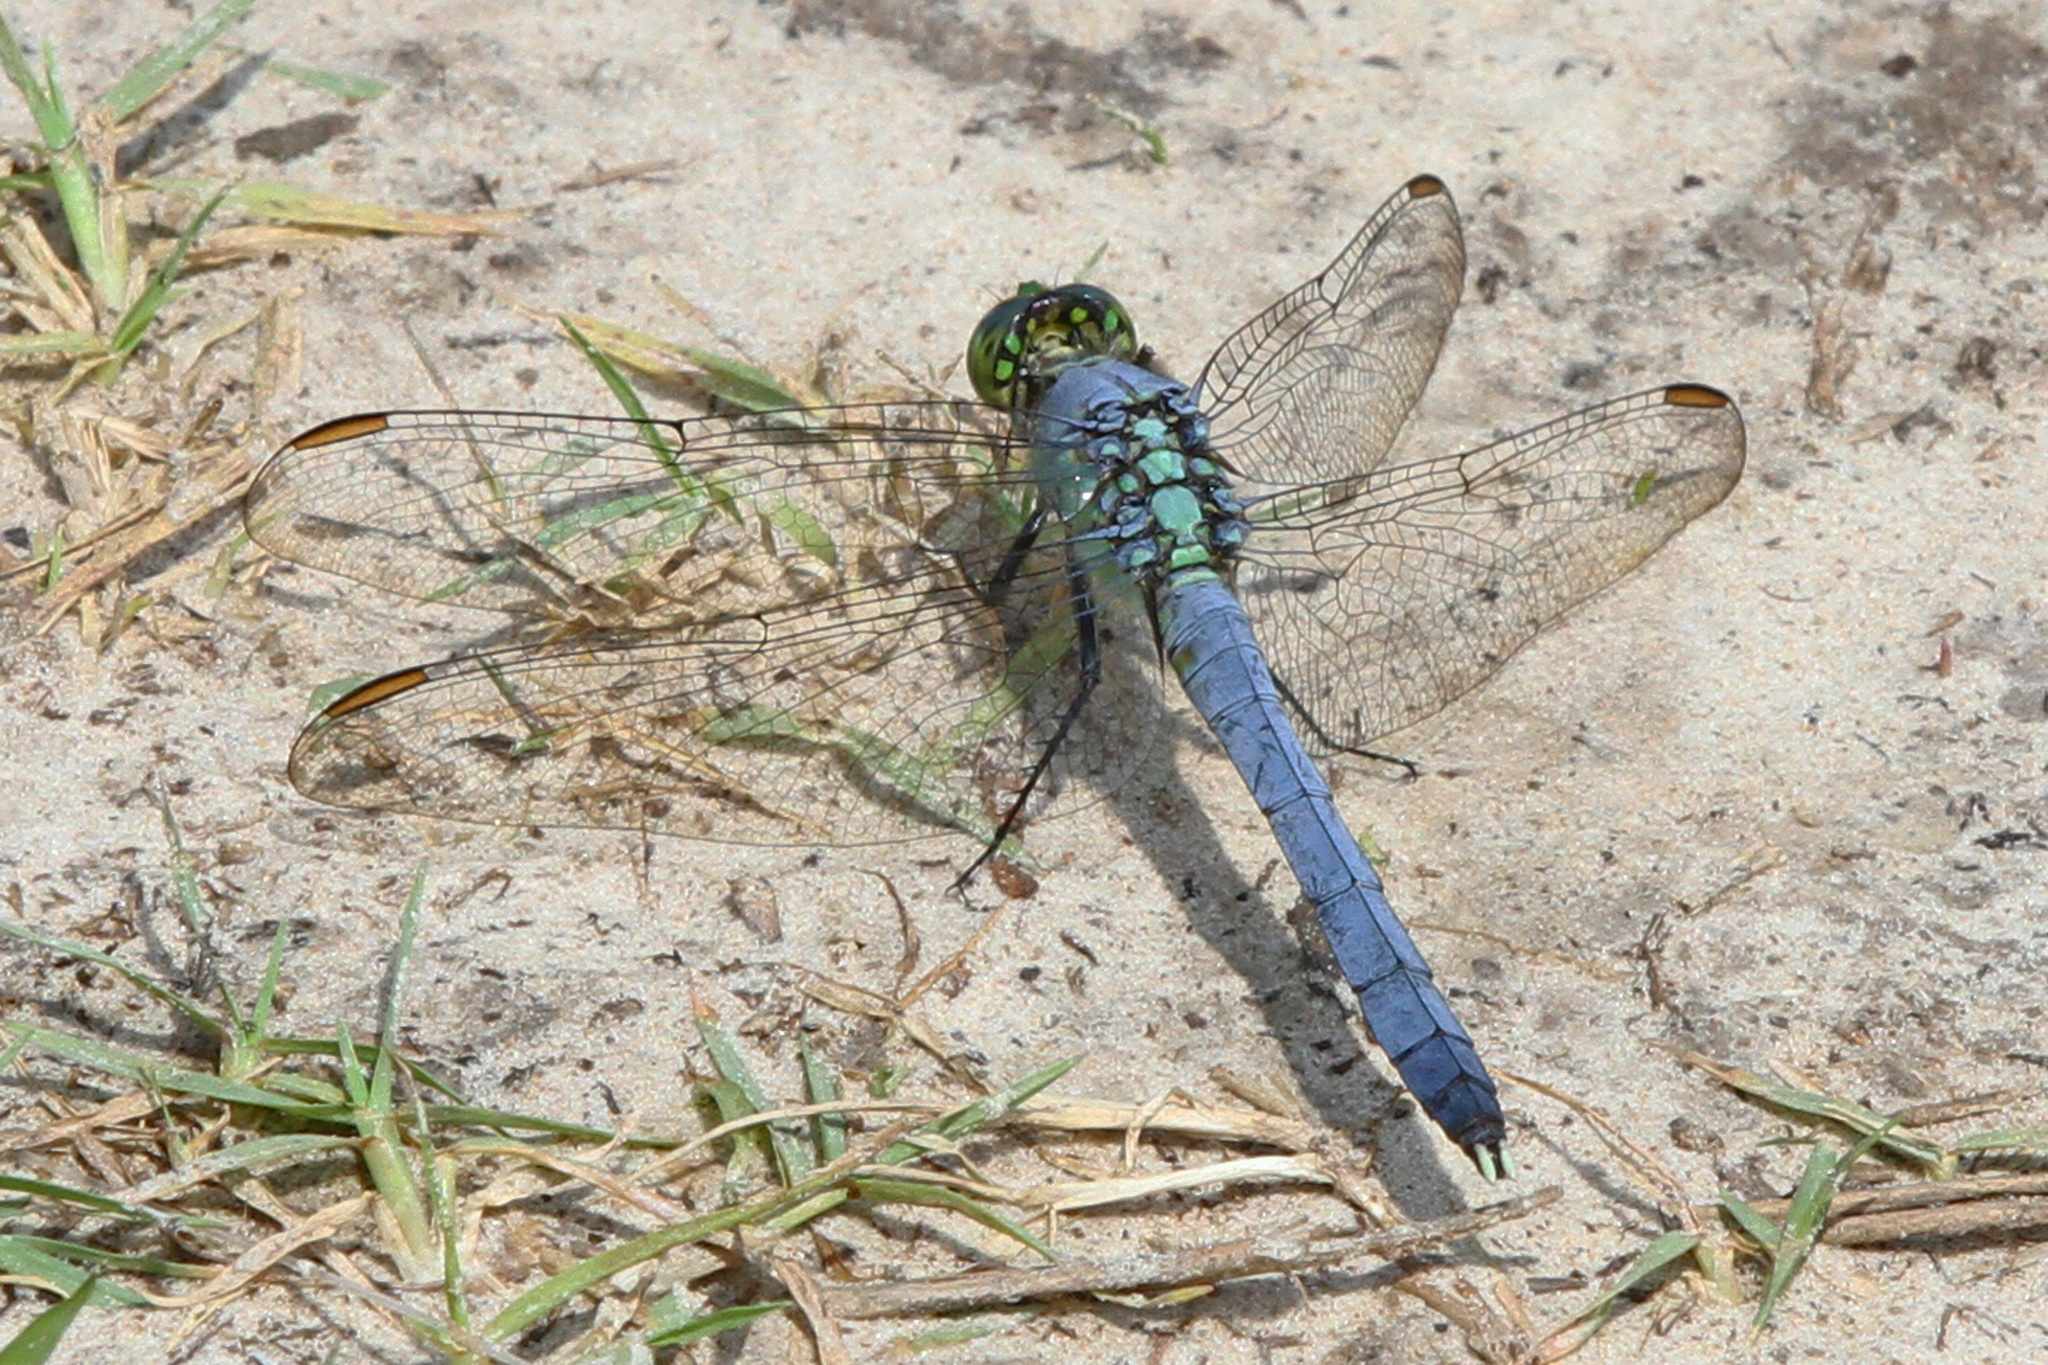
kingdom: Animalia
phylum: Arthropoda
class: Insecta
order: Odonata
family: Libellulidae
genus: Erythemis
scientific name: Erythemis simplicicollis
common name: Eastern pondhawk
